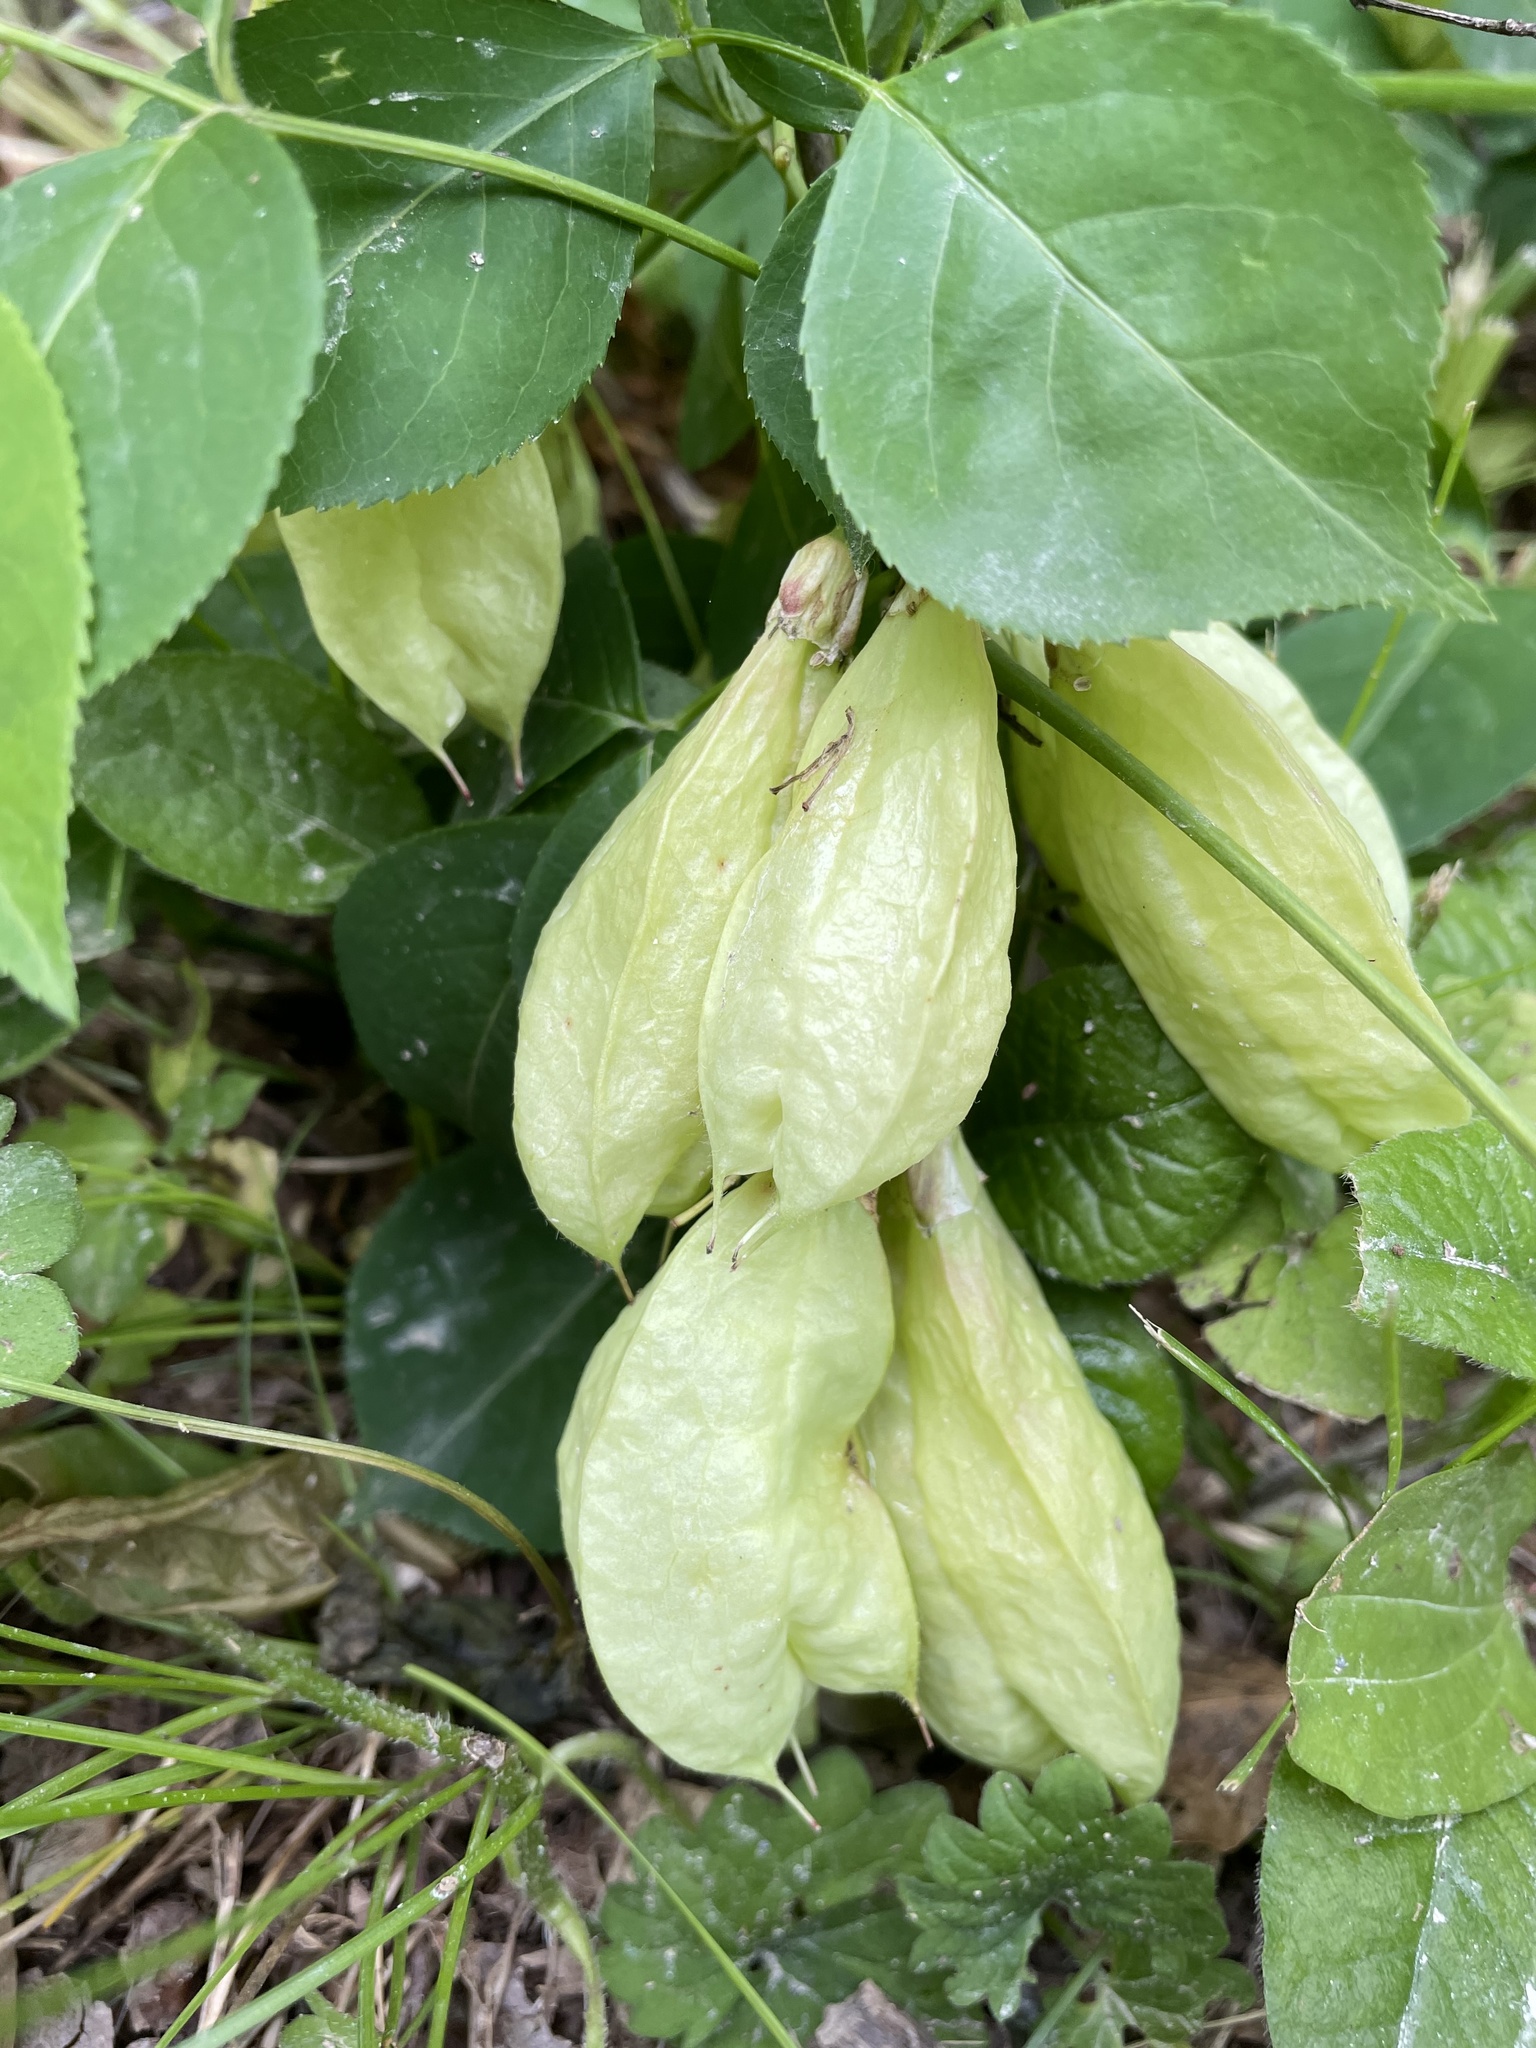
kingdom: Plantae
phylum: Tracheophyta
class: Magnoliopsida
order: Crossosomatales
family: Staphyleaceae
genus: Staphylea
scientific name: Staphylea trifolia
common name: American bladdernut
